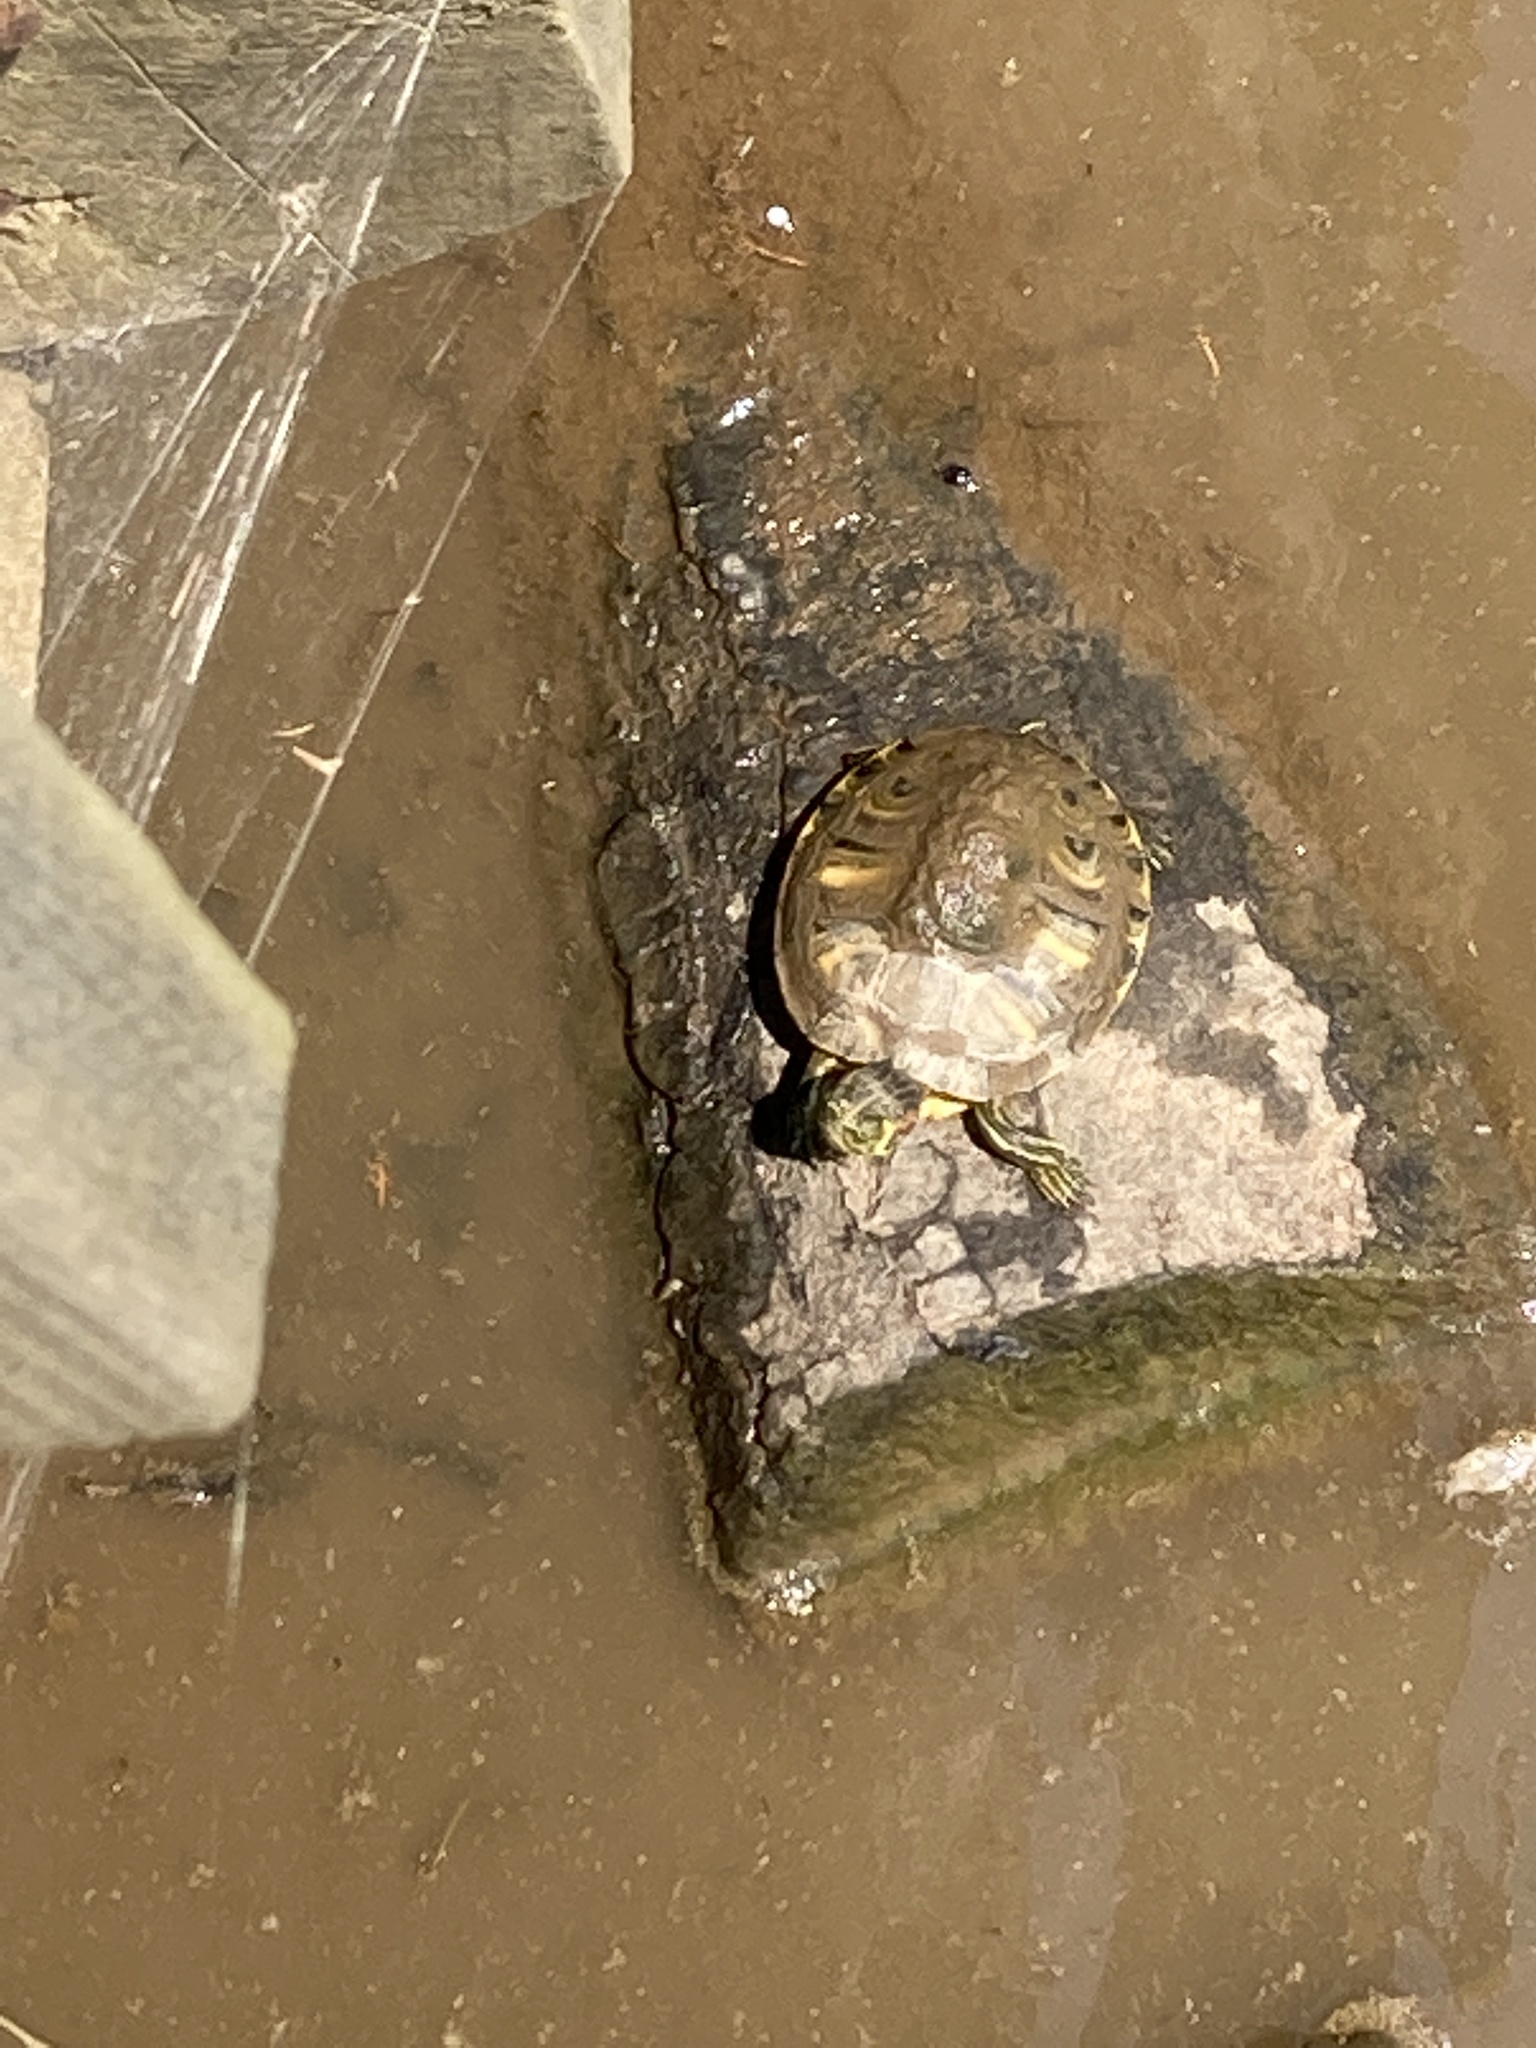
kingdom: Animalia
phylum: Chordata
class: Testudines
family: Emydidae
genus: Trachemys
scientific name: Trachemys scripta
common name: Slider
